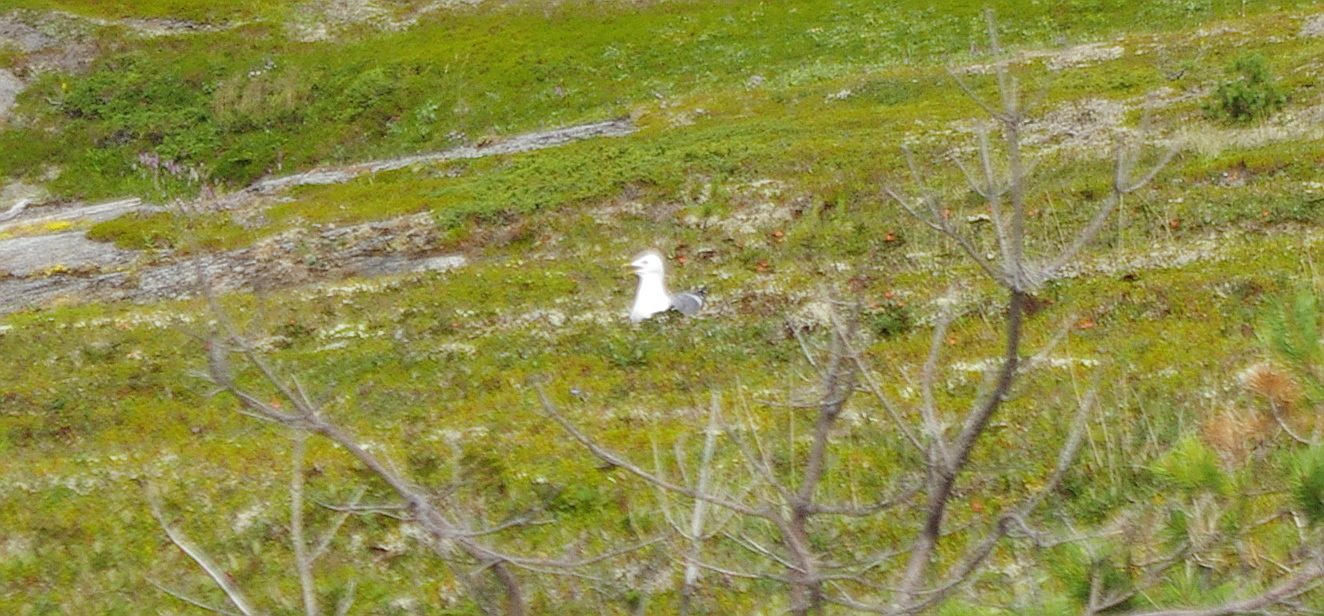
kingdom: Animalia
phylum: Chordata
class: Aves
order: Charadriiformes
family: Laridae
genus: Larus
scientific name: Larus argentatus
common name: Herring gull
